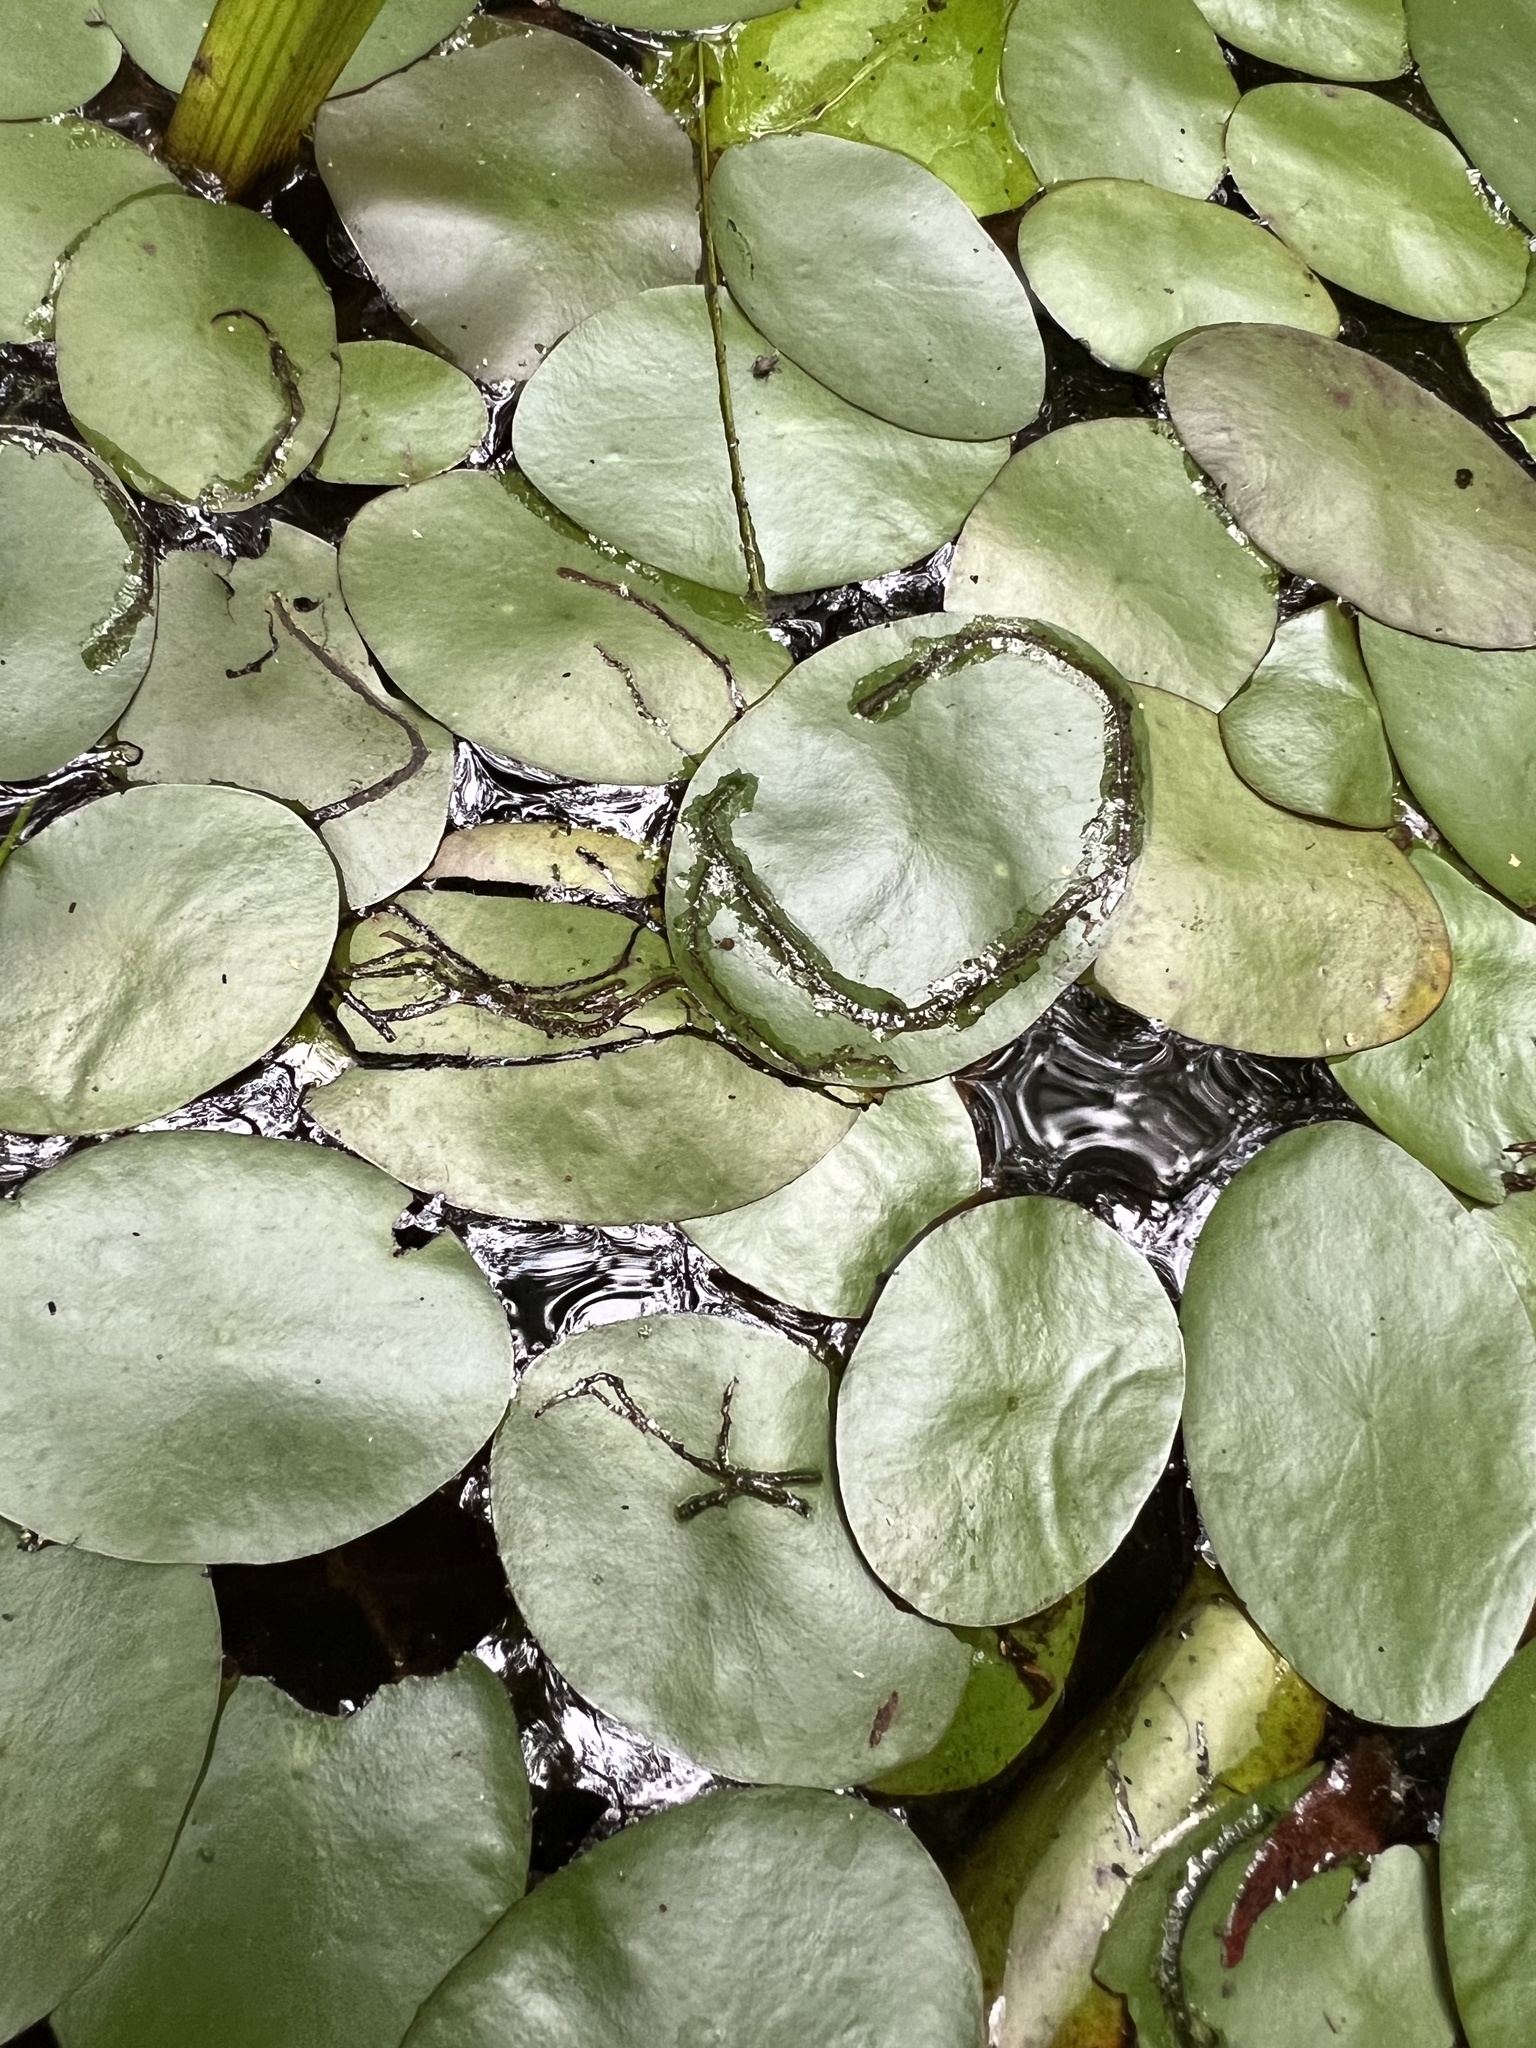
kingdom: Plantae
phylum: Tracheophyta
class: Magnoliopsida
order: Nymphaeales
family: Cabombaceae
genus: Brasenia
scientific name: Brasenia schreberi
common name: Water-shield
